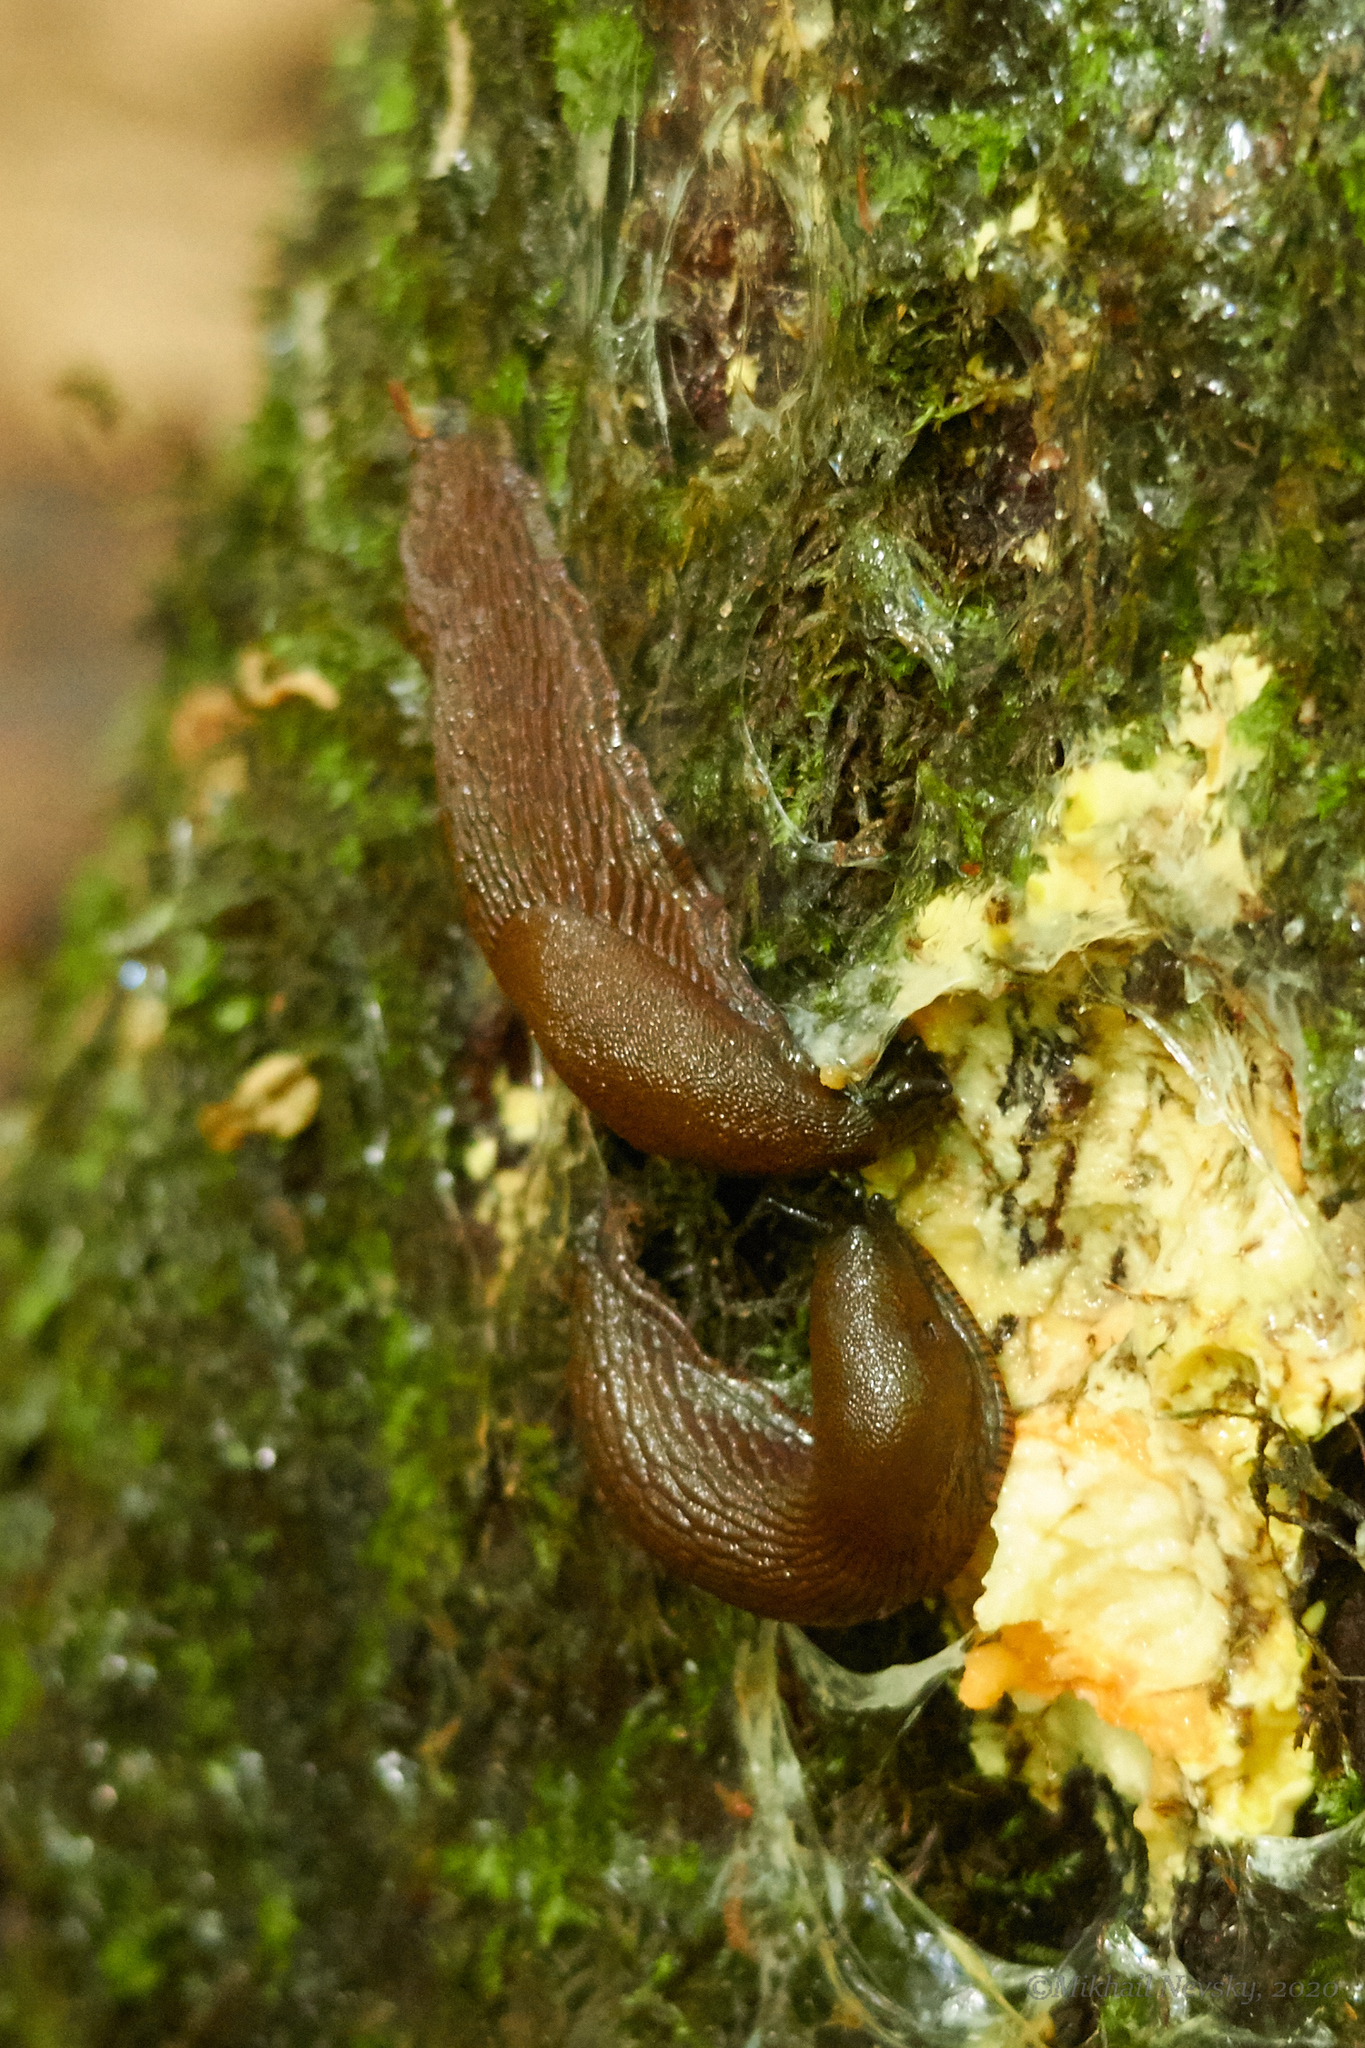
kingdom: Animalia
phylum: Mollusca
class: Gastropoda
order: Stylommatophora
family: Arionidae
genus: Arion
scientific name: Arion vulgaris
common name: Lusitanian slug
